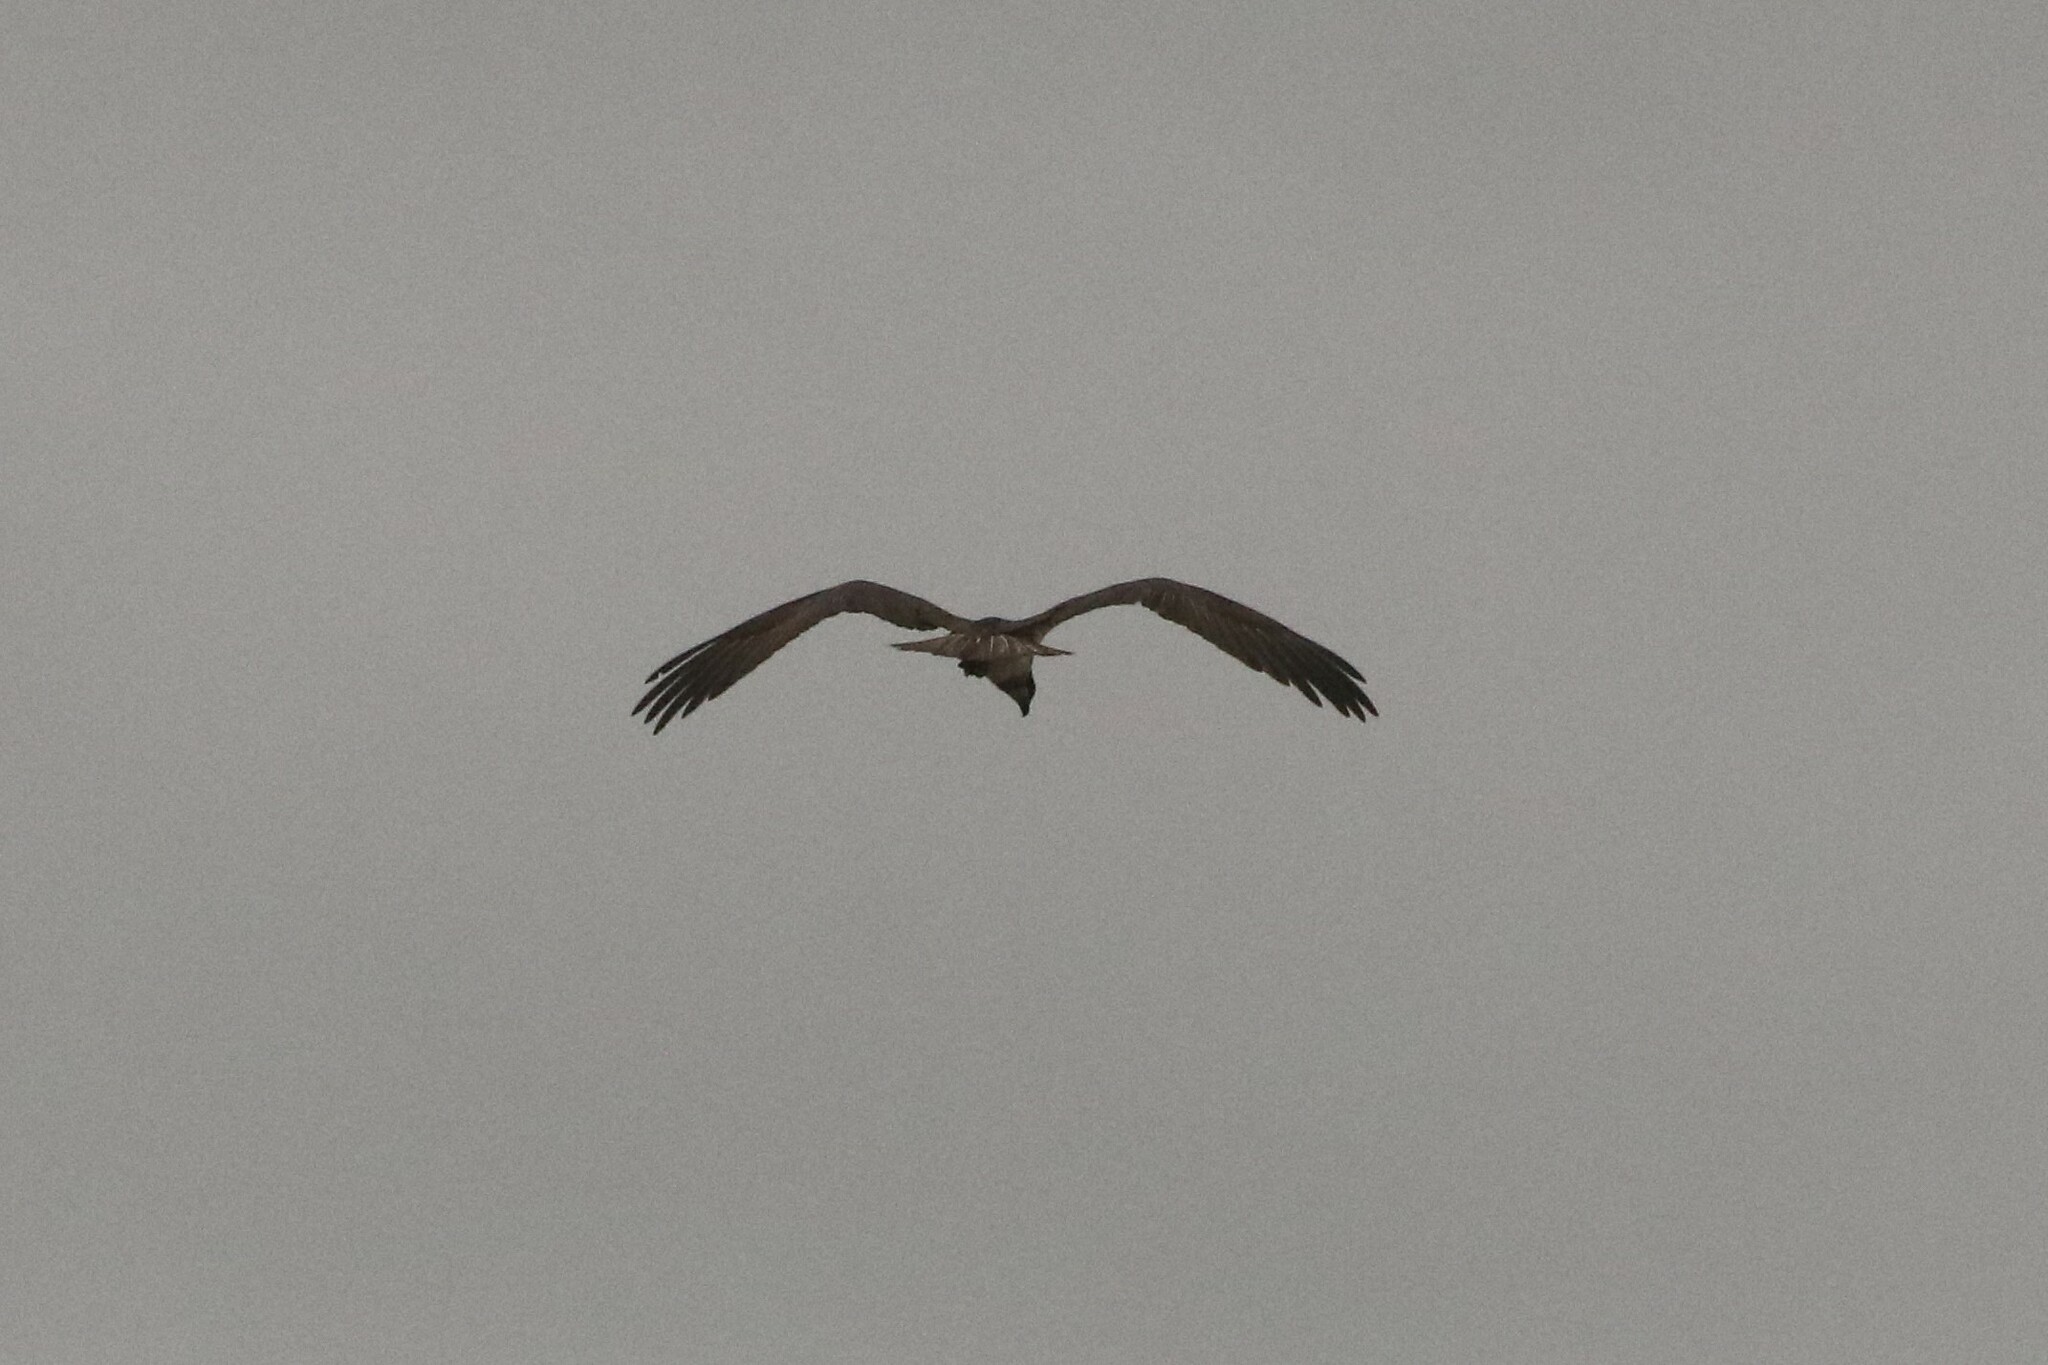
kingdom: Animalia
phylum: Chordata
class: Aves
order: Accipitriformes
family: Pandionidae
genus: Pandion
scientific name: Pandion haliaetus
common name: Osprey
